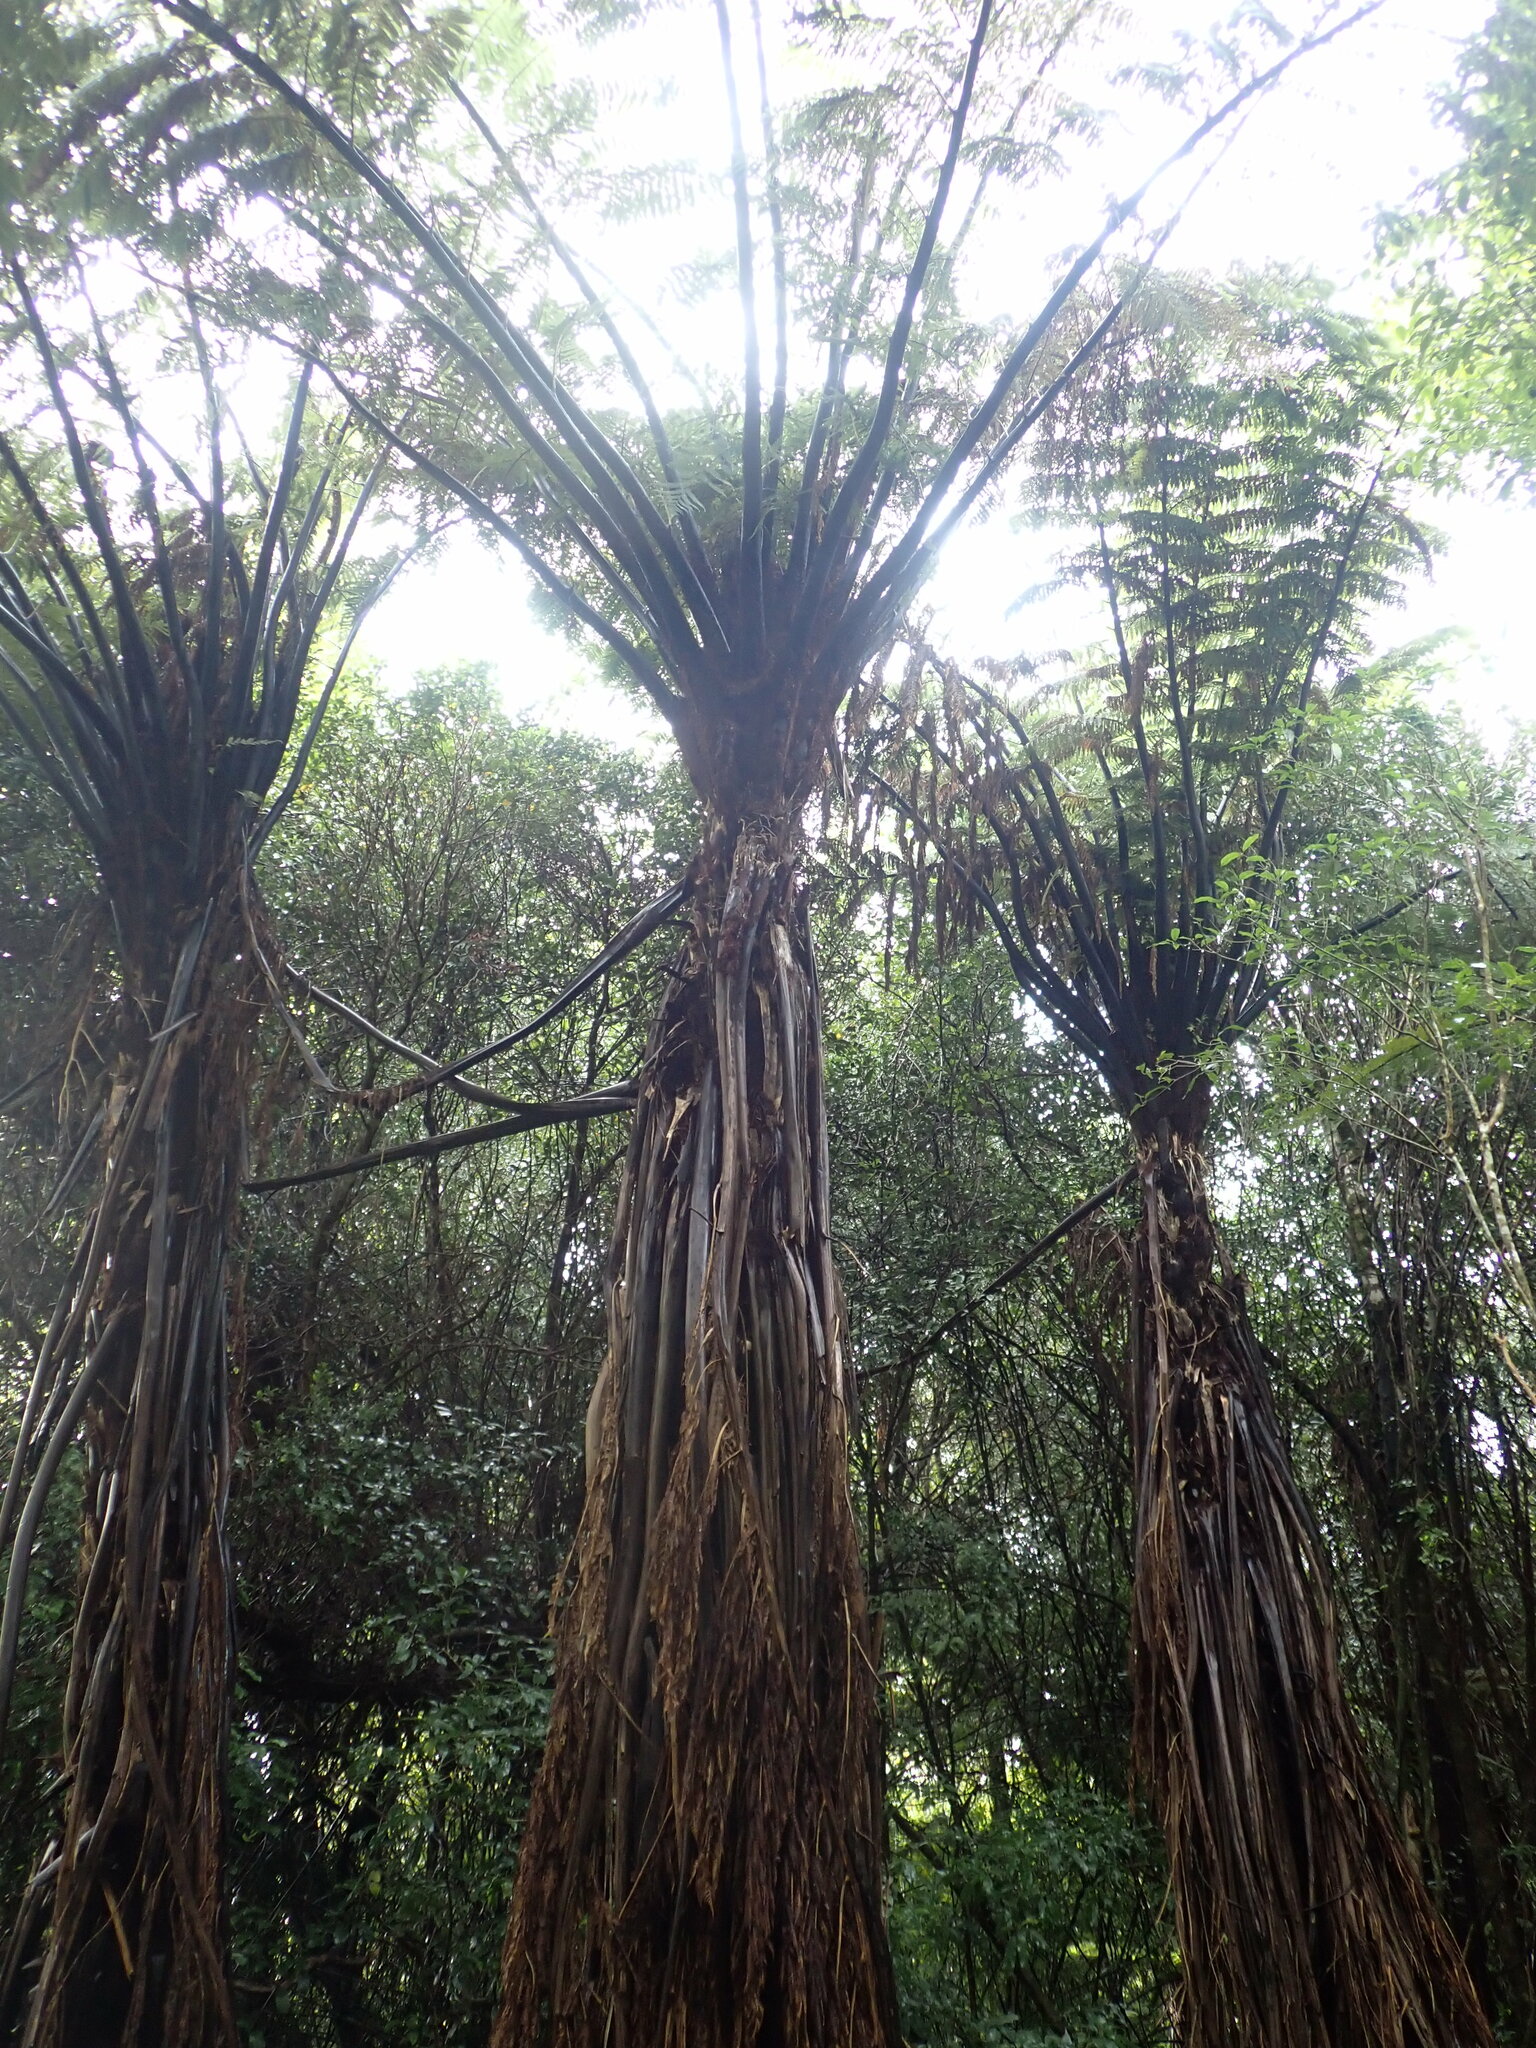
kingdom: Plantae
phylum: Tracheophyta
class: Polypodiopsida
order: Cyatheales
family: Cyatheaceae
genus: Sphaeropteris
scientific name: Sphaeropteris medullaris
